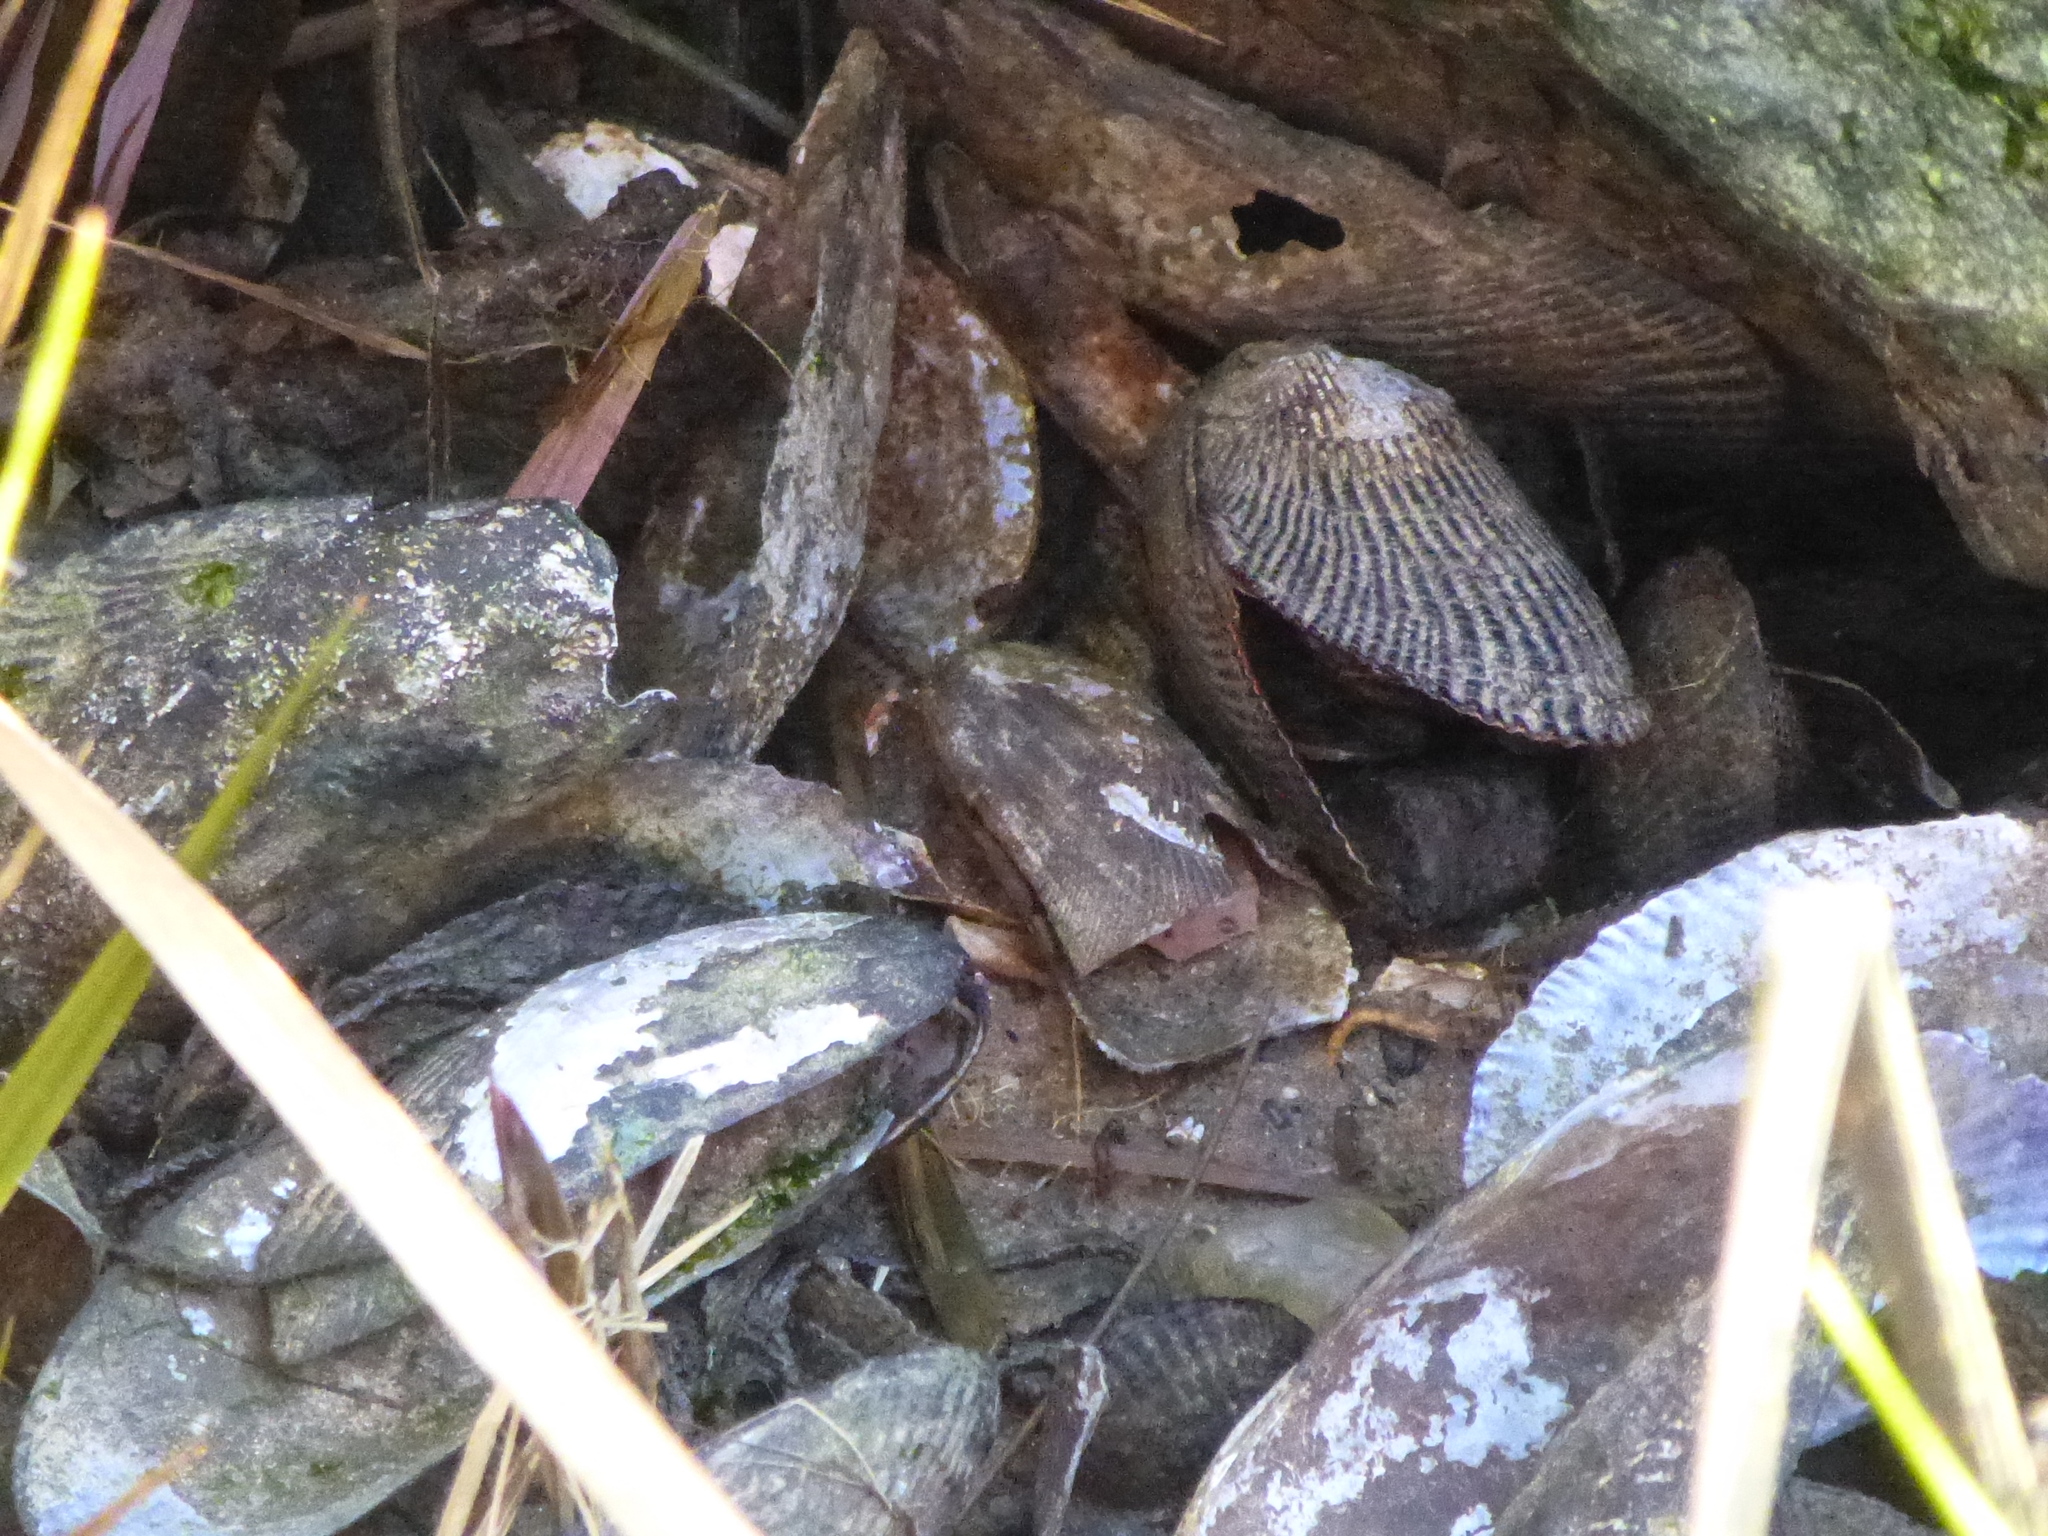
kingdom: Animalia
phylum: Mollusca
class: Bivalvia
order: Mytilida
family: Mytilidae
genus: Geukensia
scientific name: Geukensia demissa
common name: Ribbed mussel
